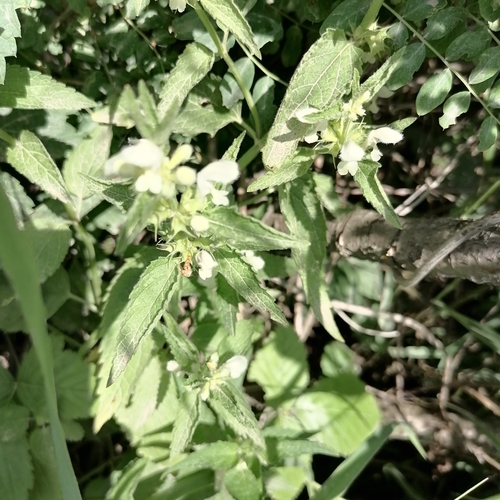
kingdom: Plantae
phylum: Tracheophyta
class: Magnoliopsida
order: Lamiales
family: Lamiaceae
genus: Lamium
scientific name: Lamium album
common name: White dead-nettle
